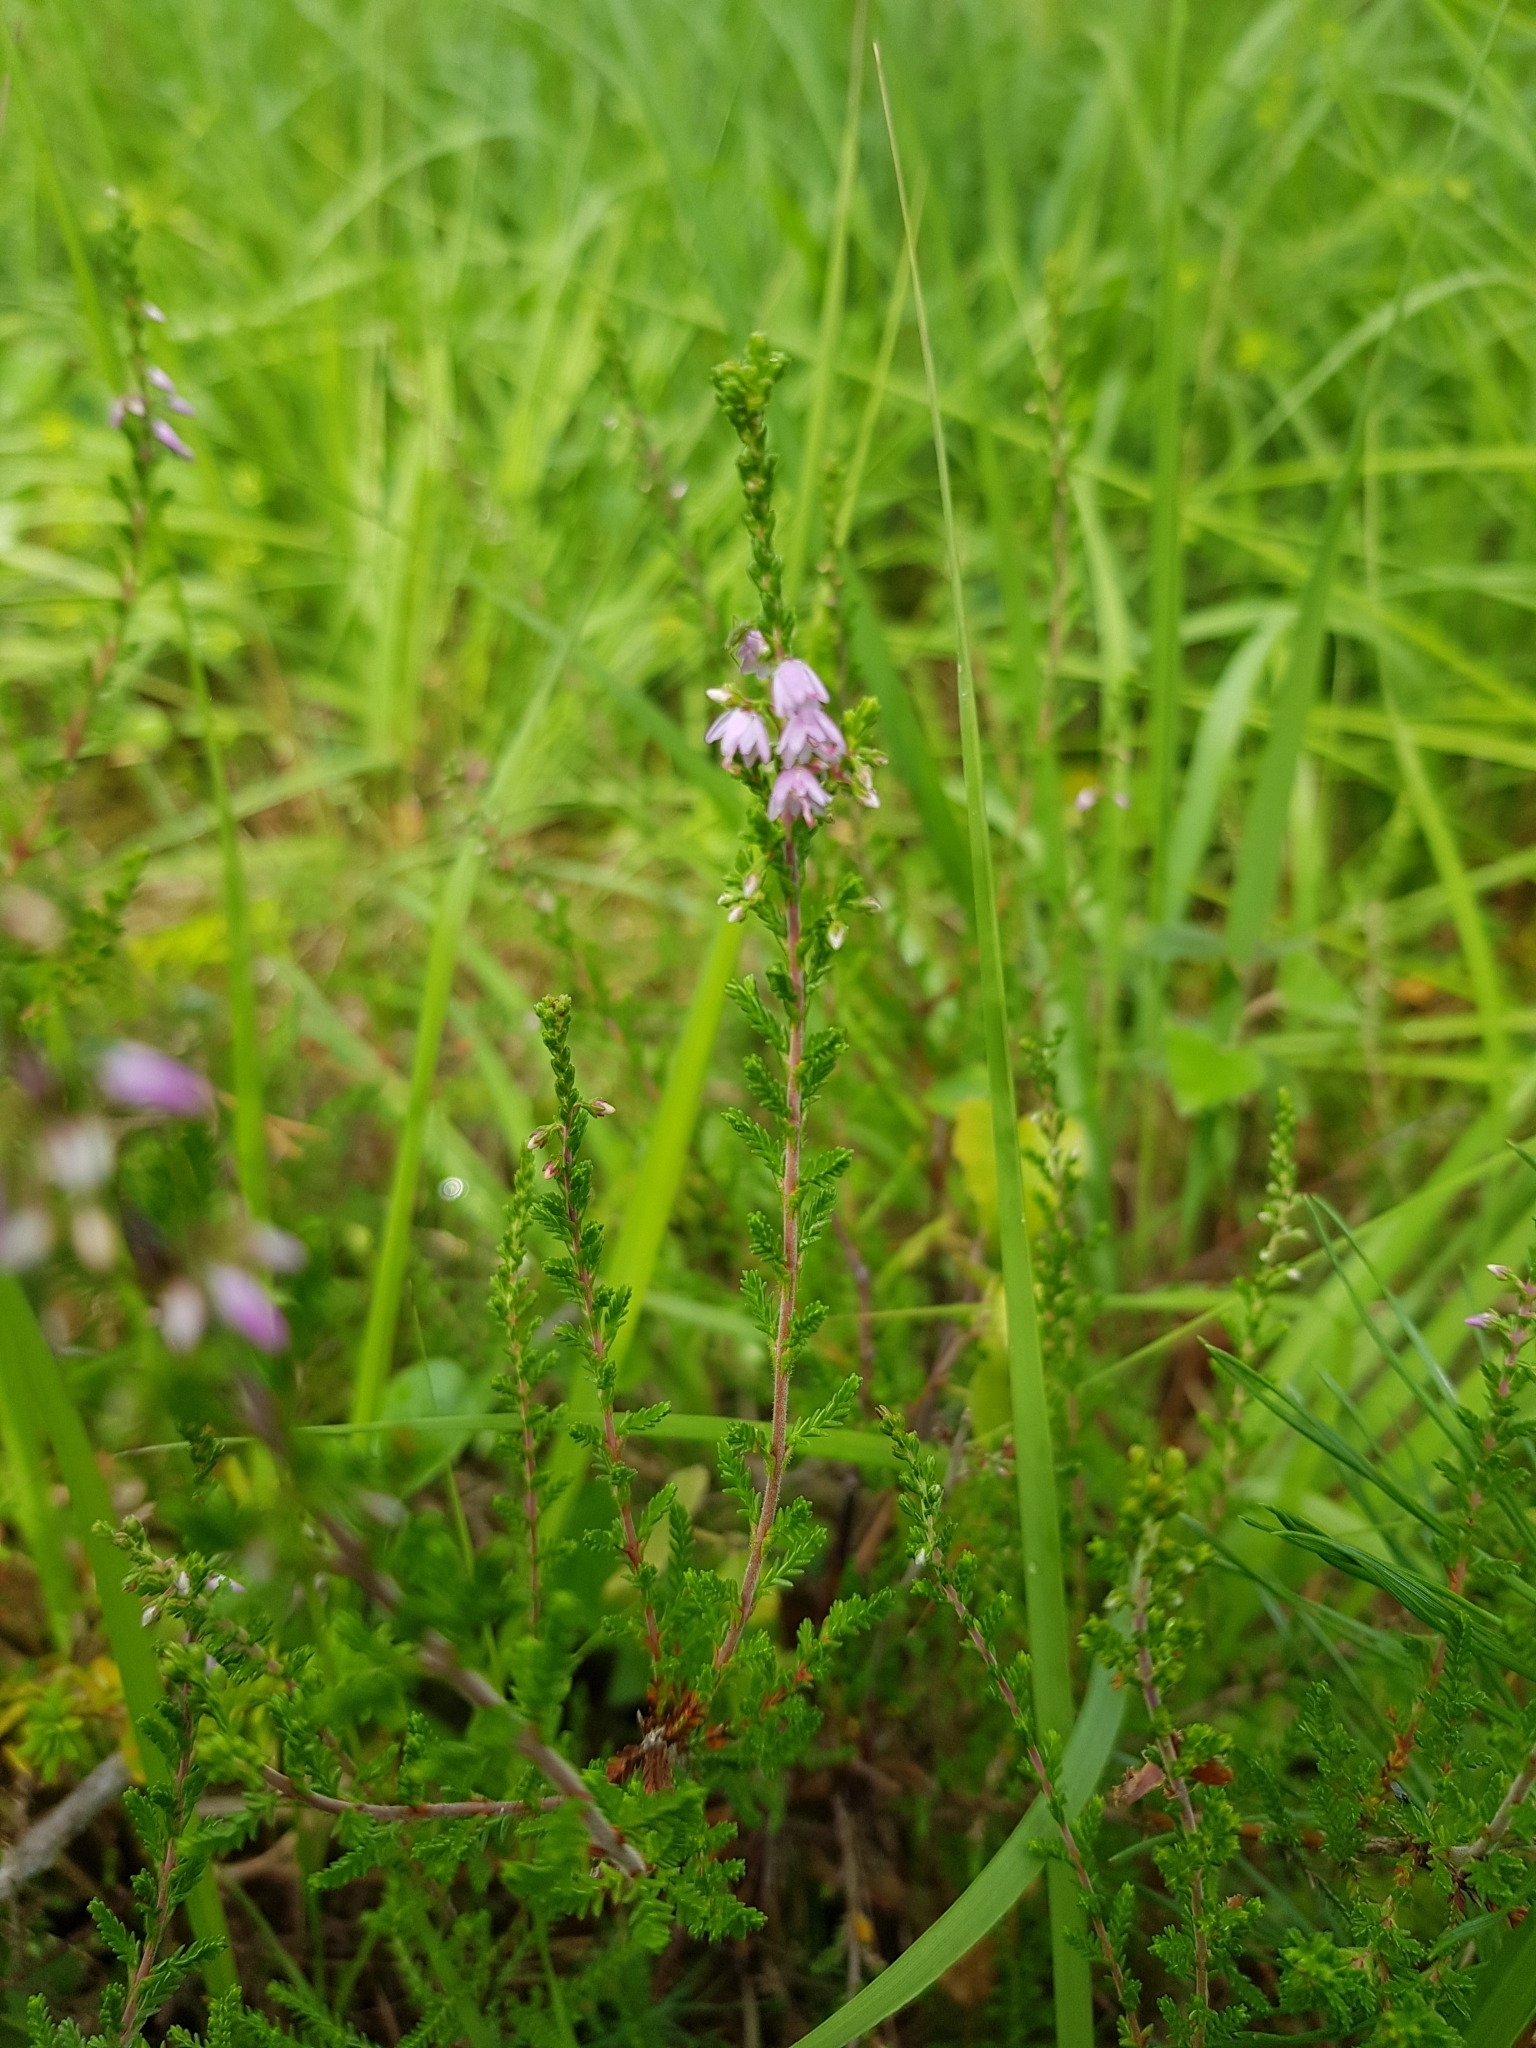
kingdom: Plantae
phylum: Tracheophyta
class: Magnoliopsida
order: Ericales
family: Ericaceae
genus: Calluna
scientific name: Calluna vulgaris
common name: Heather
